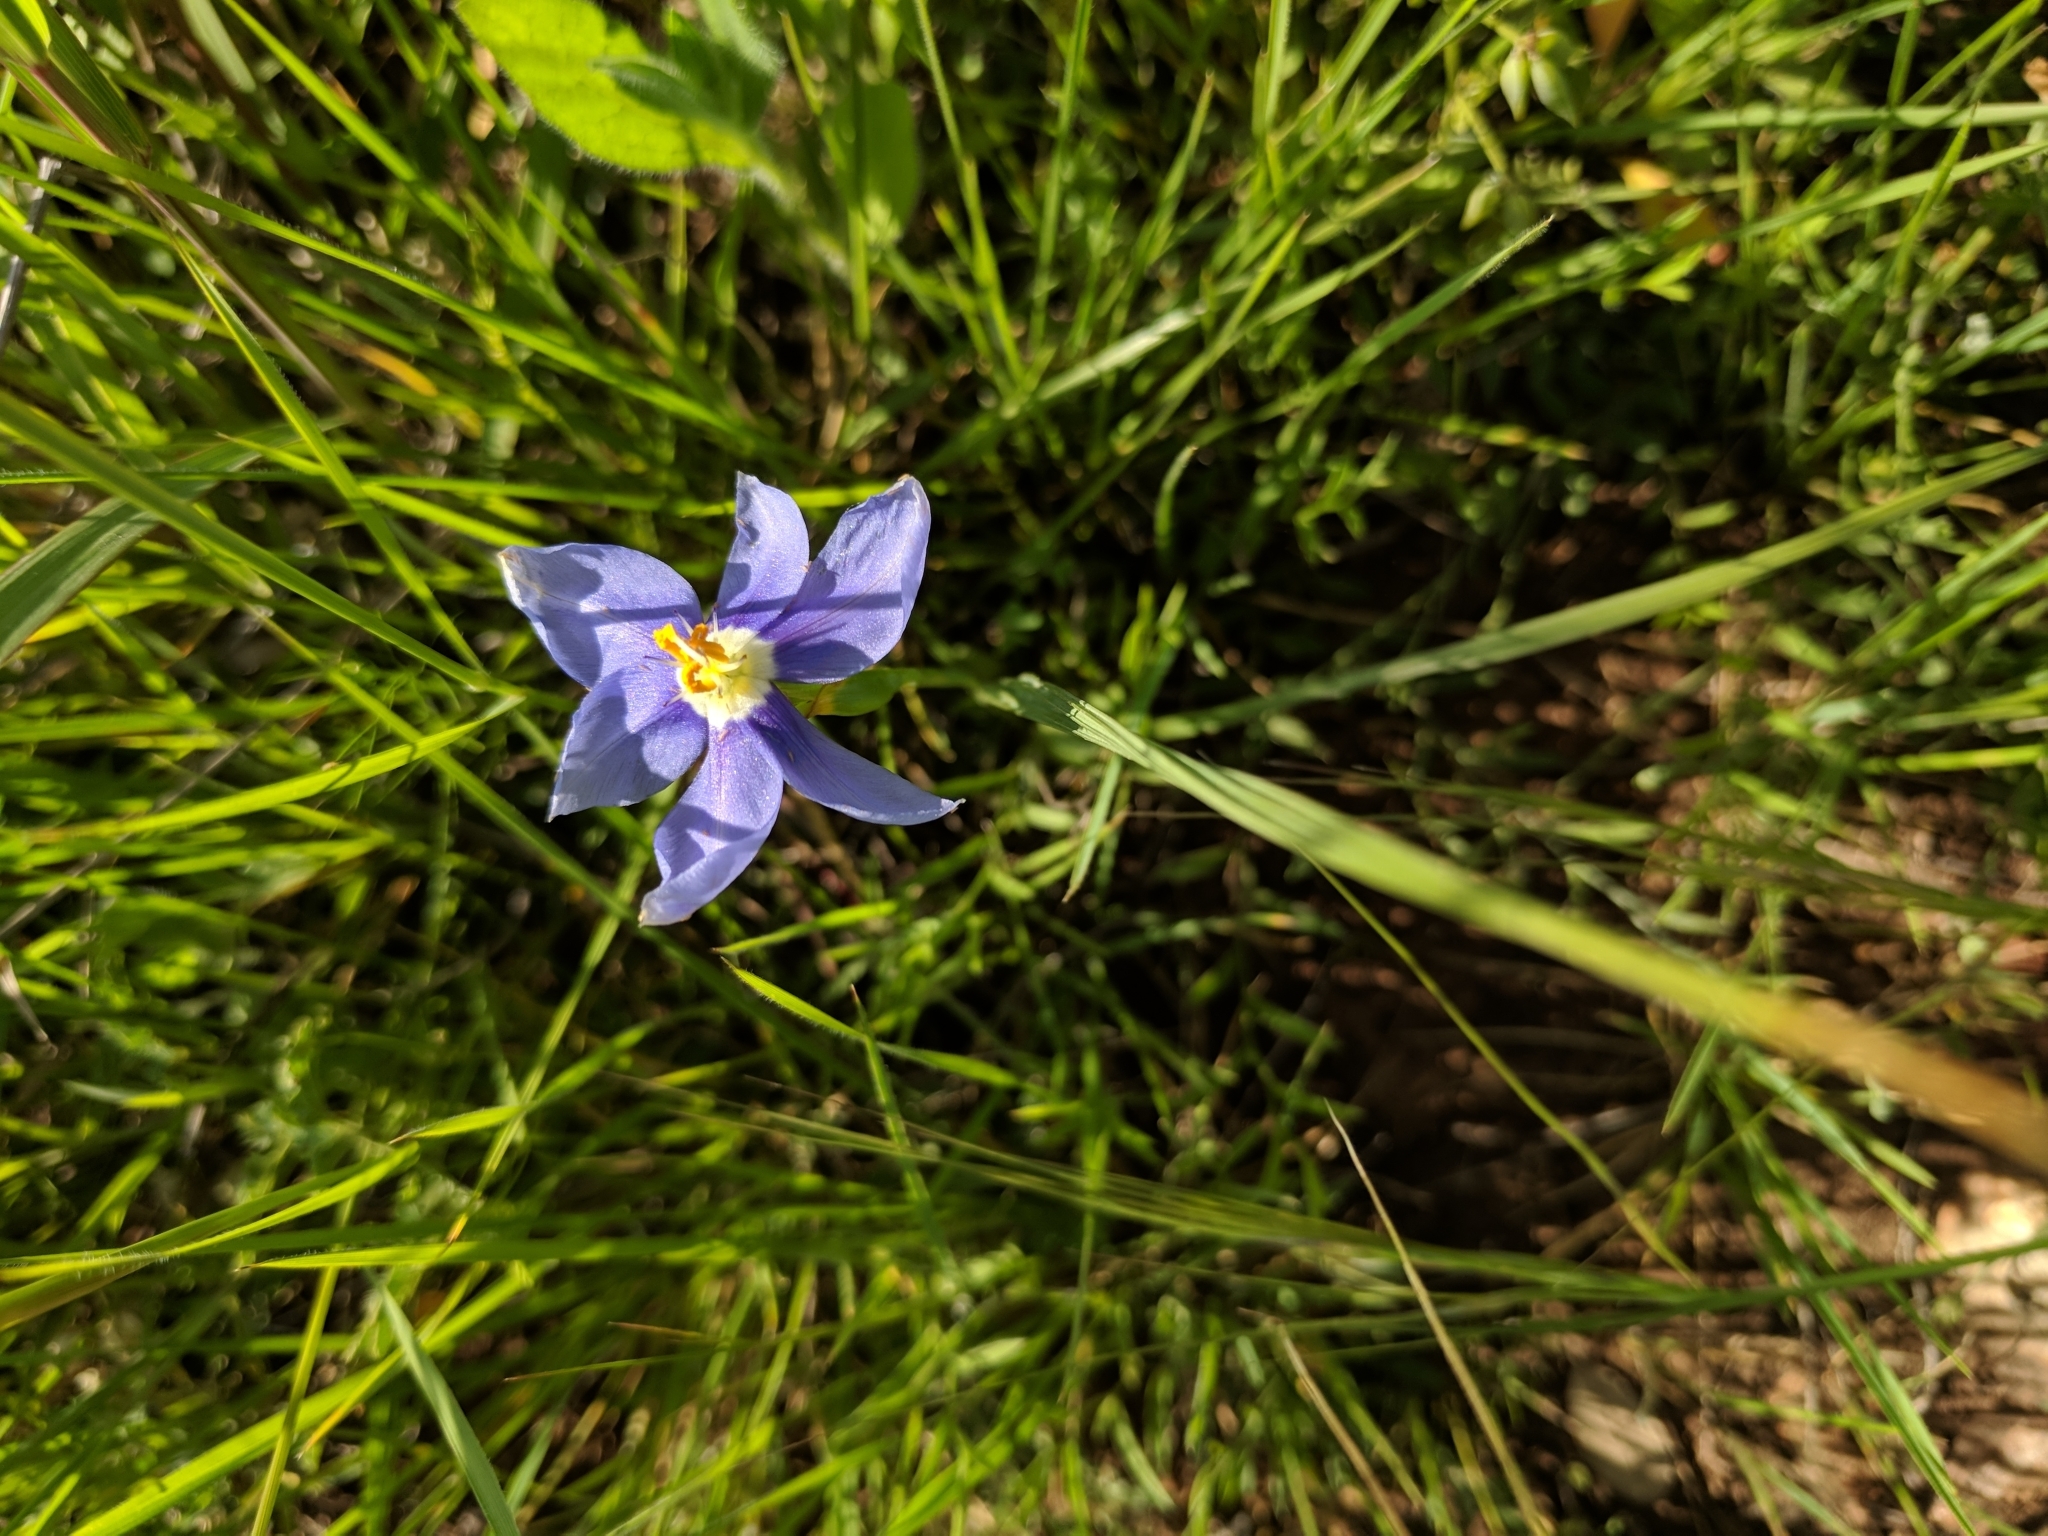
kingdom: Plantae
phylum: Tracheophyta
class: Liliopsida
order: Asparagales
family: Iridaceae
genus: Nemastylis
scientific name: Nemastylis geminiflora
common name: Prairie celestial
